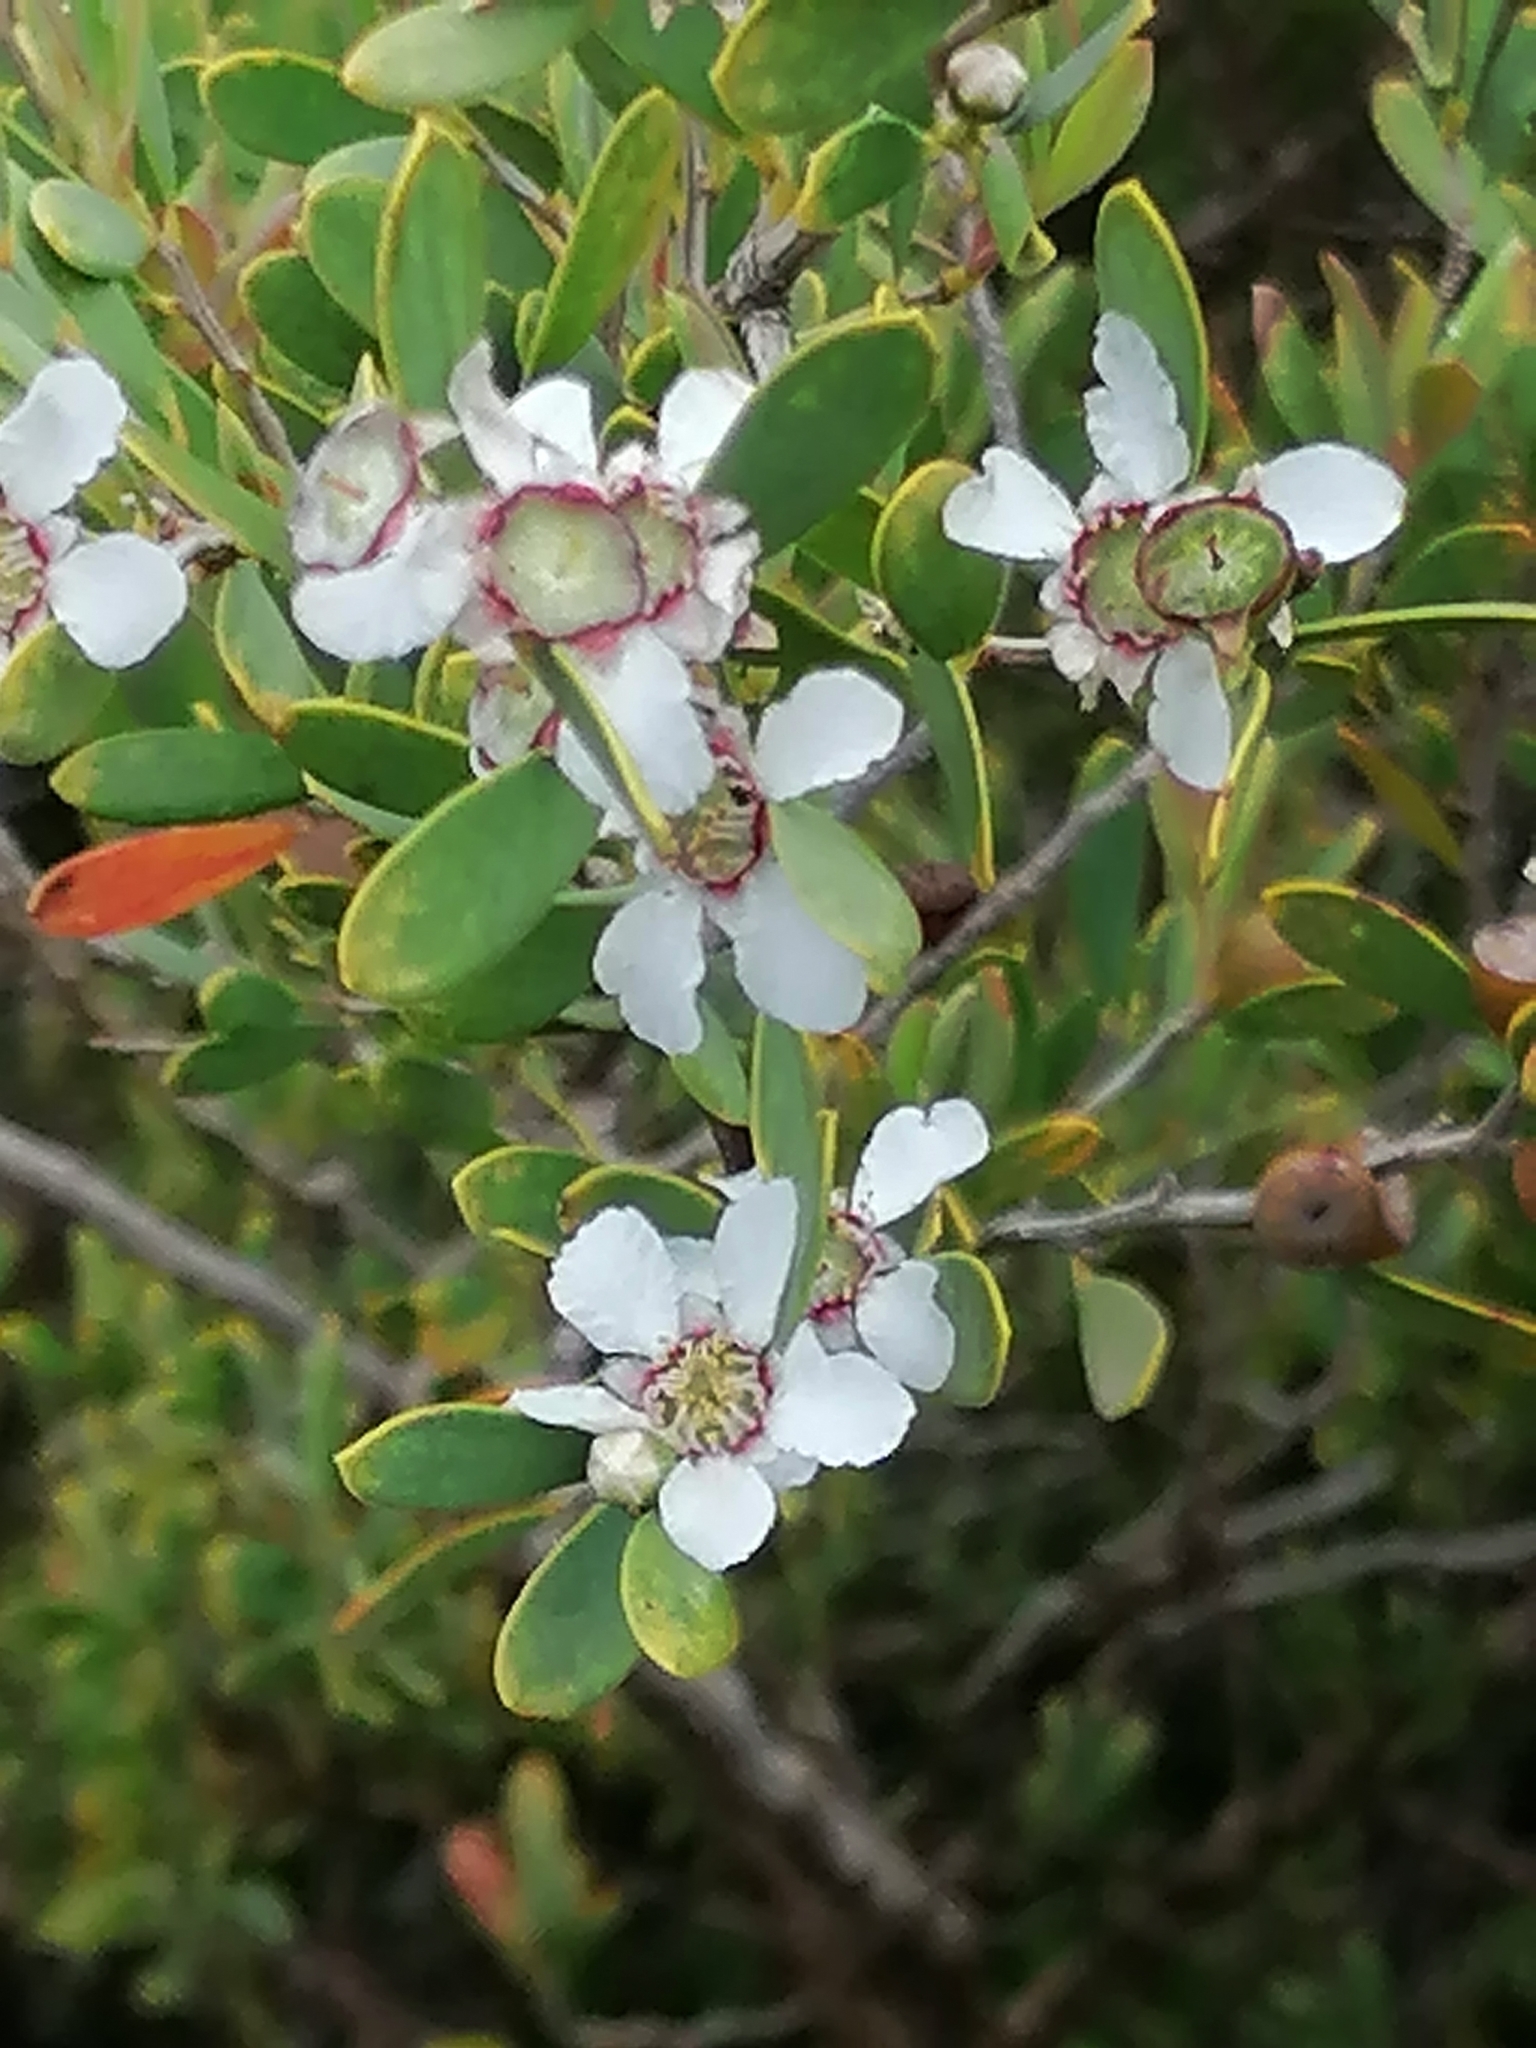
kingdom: Plantae
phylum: Tracheophyta
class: Magnoliopsida
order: Myrtales
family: Myrtaceae
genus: Leptospermum
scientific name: Leptospermum laevigatum
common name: Australian teatree
